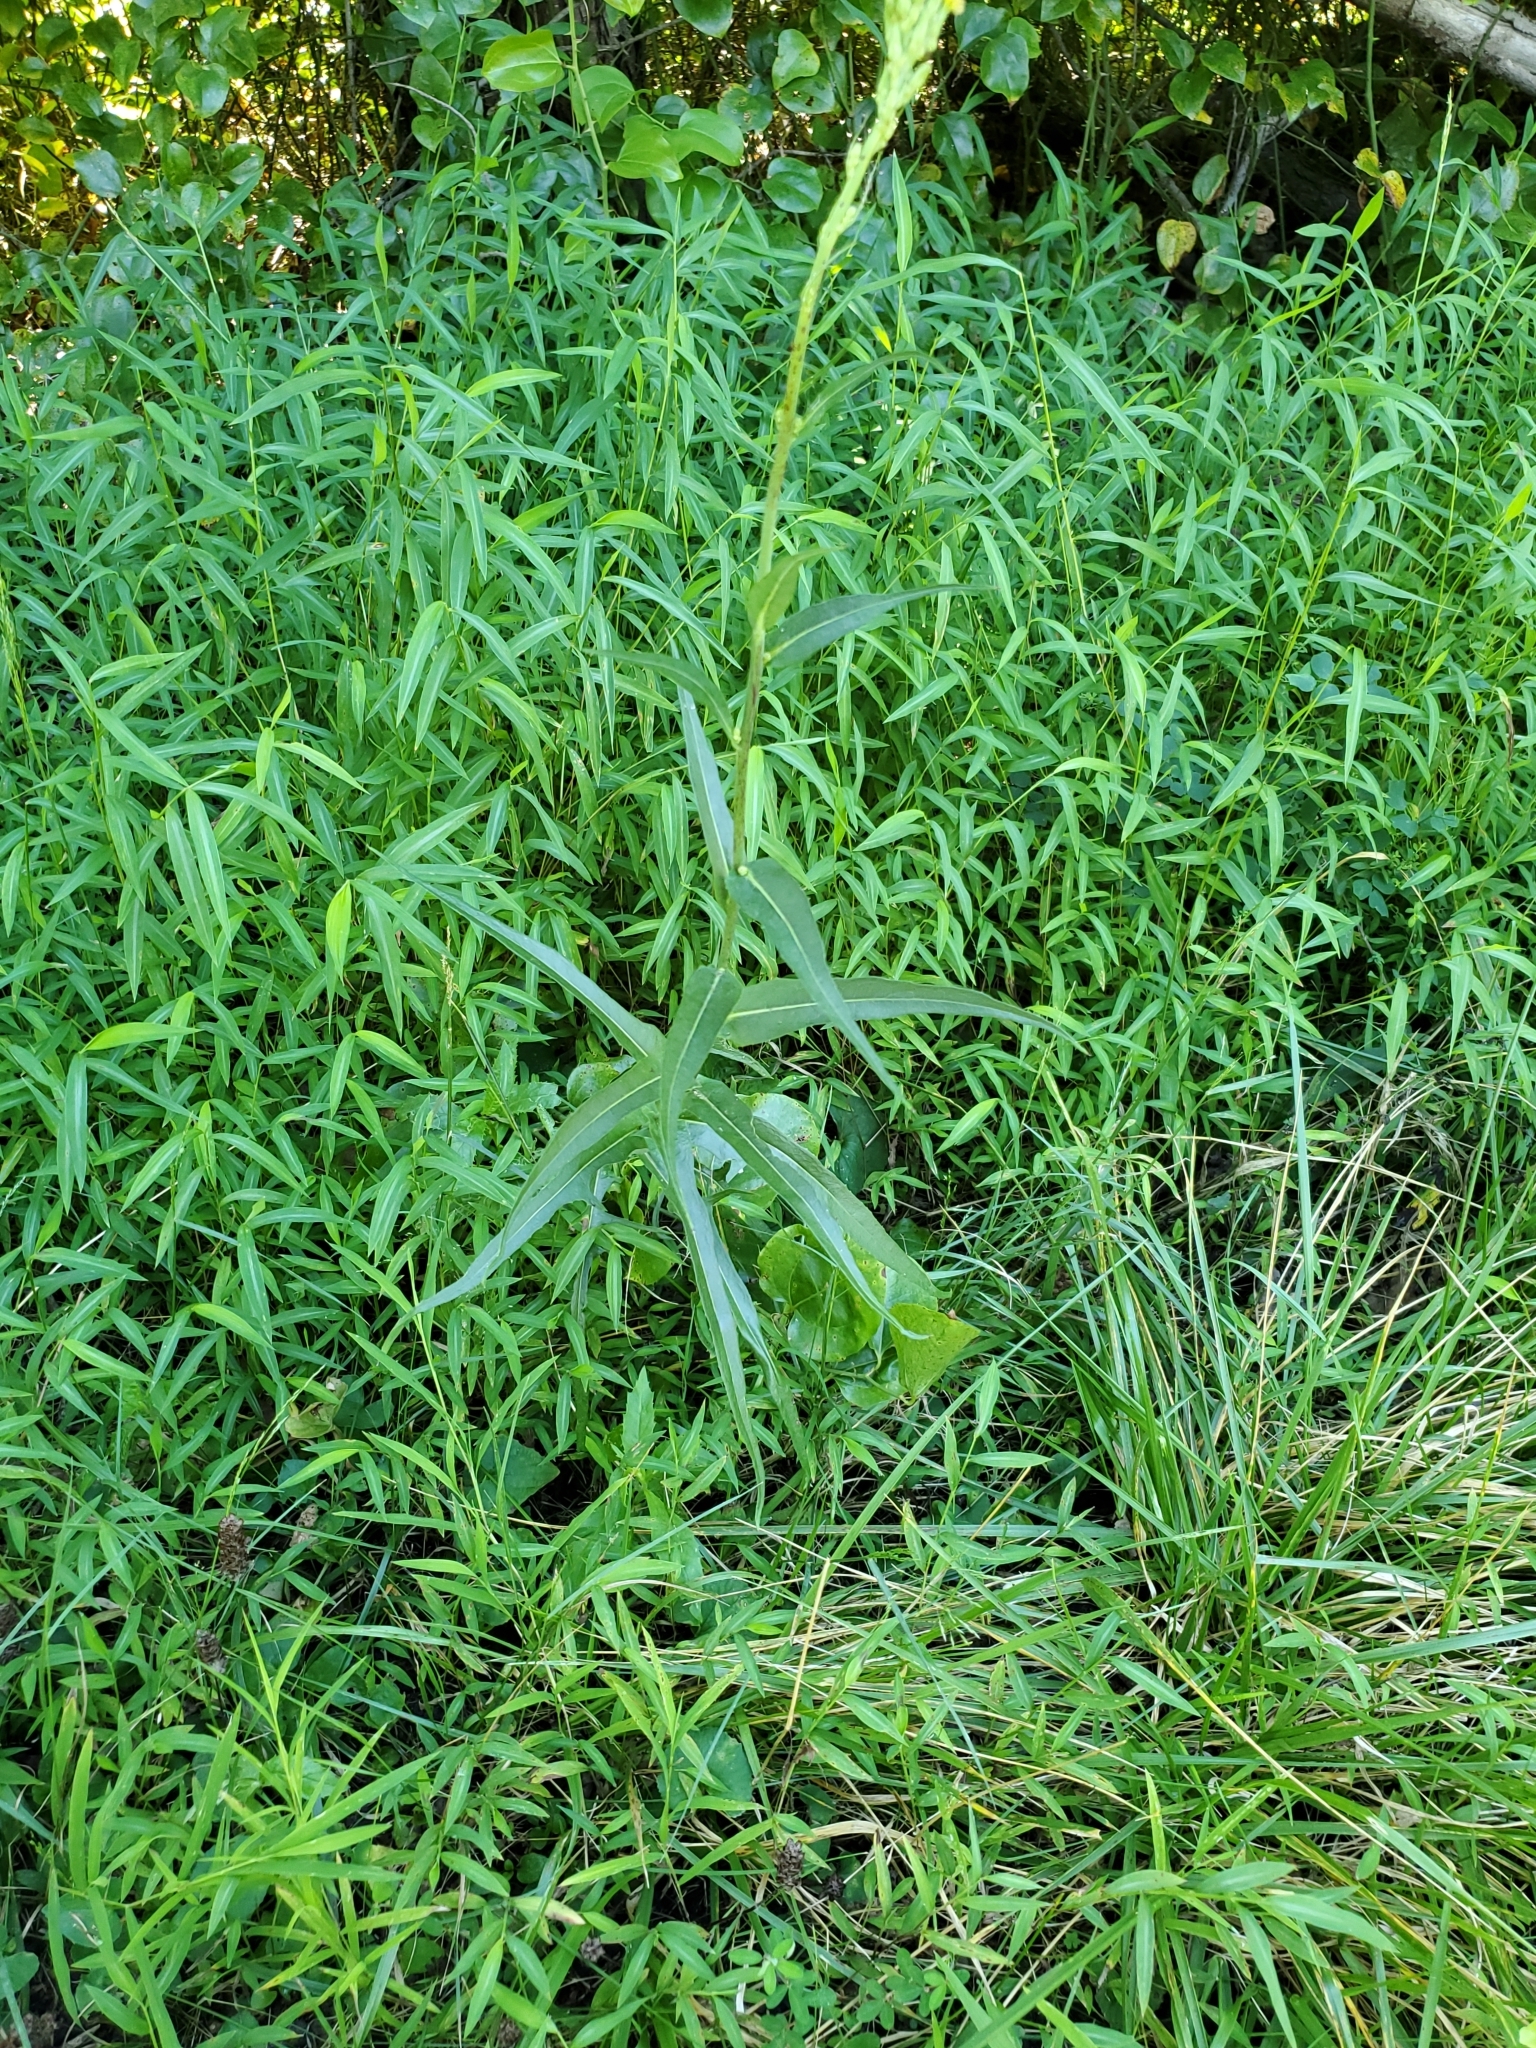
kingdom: Plantae
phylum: Tracheophyta
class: Magnoliopsida
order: Asterales
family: Asteraceae
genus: Lactuca
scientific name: Lactuca canadensis
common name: Canada lettuce
